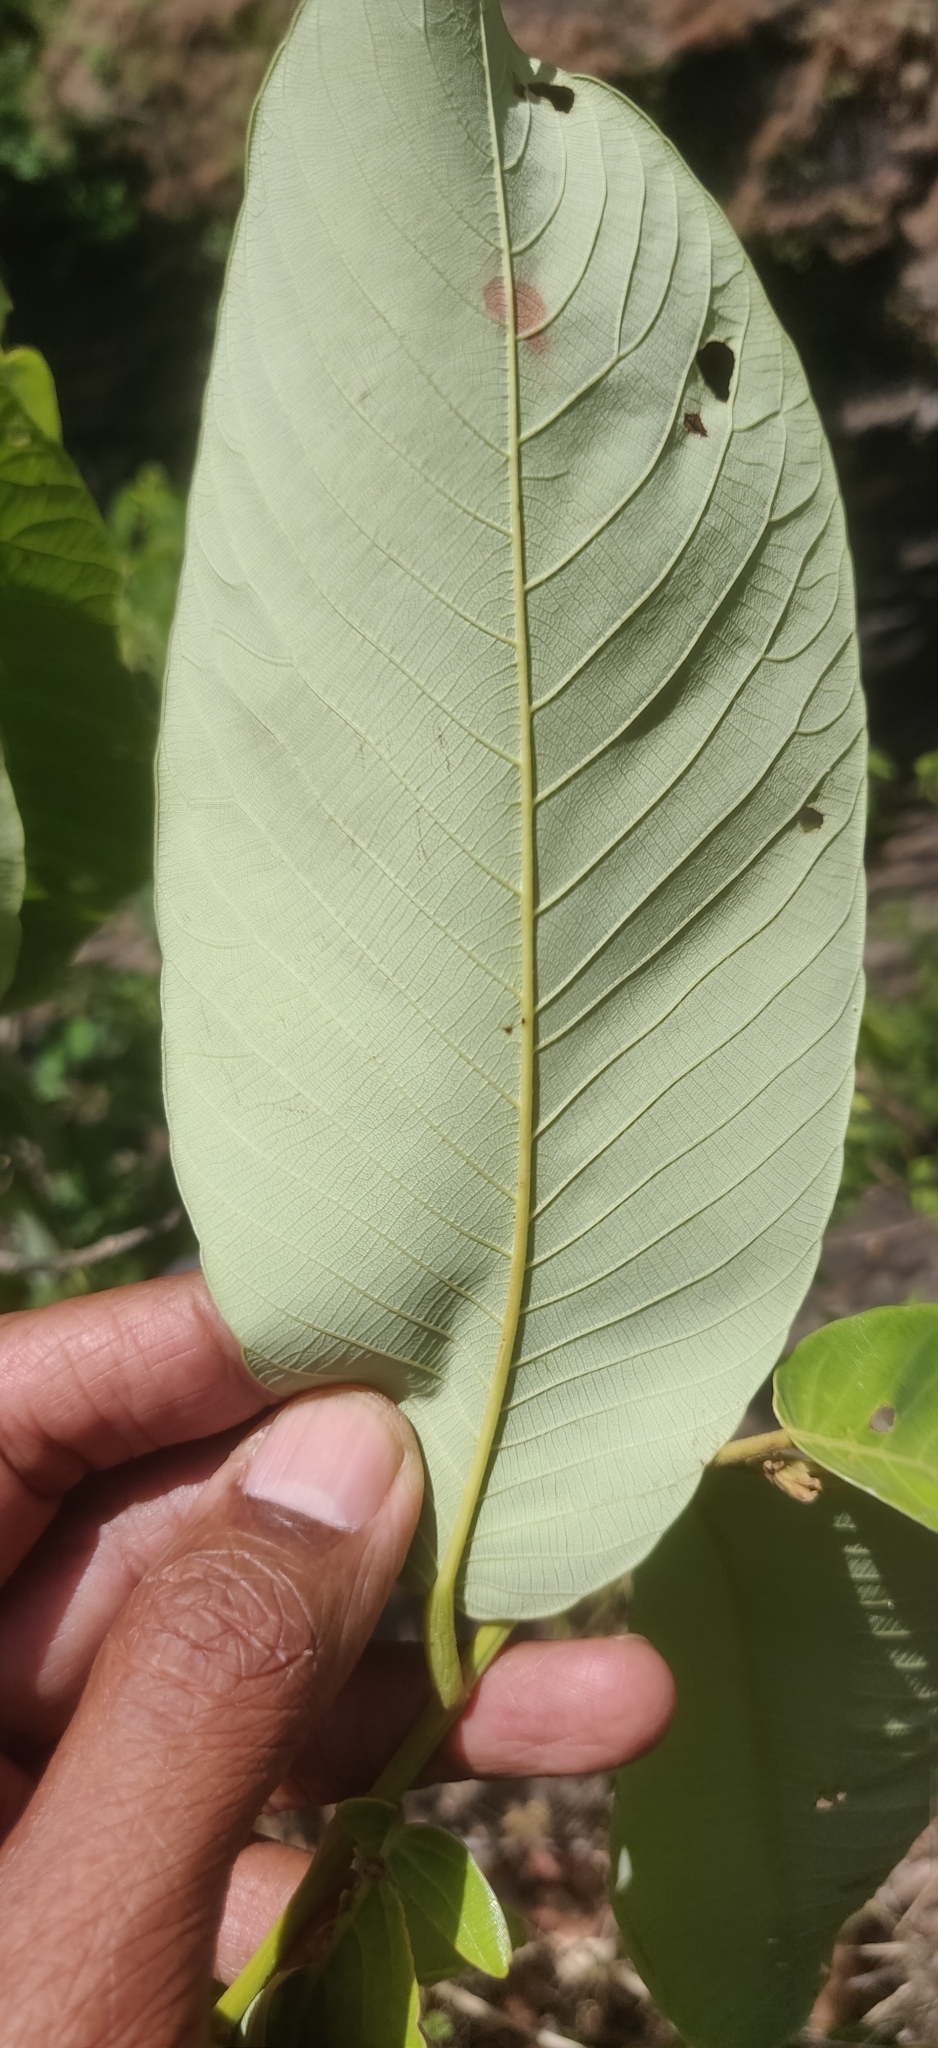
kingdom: Plantae
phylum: Tracheophyta
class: Magnoliopsida
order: Malpighiales
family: Phyllanthaceae
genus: Bridelia
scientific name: Bridelia retusa
